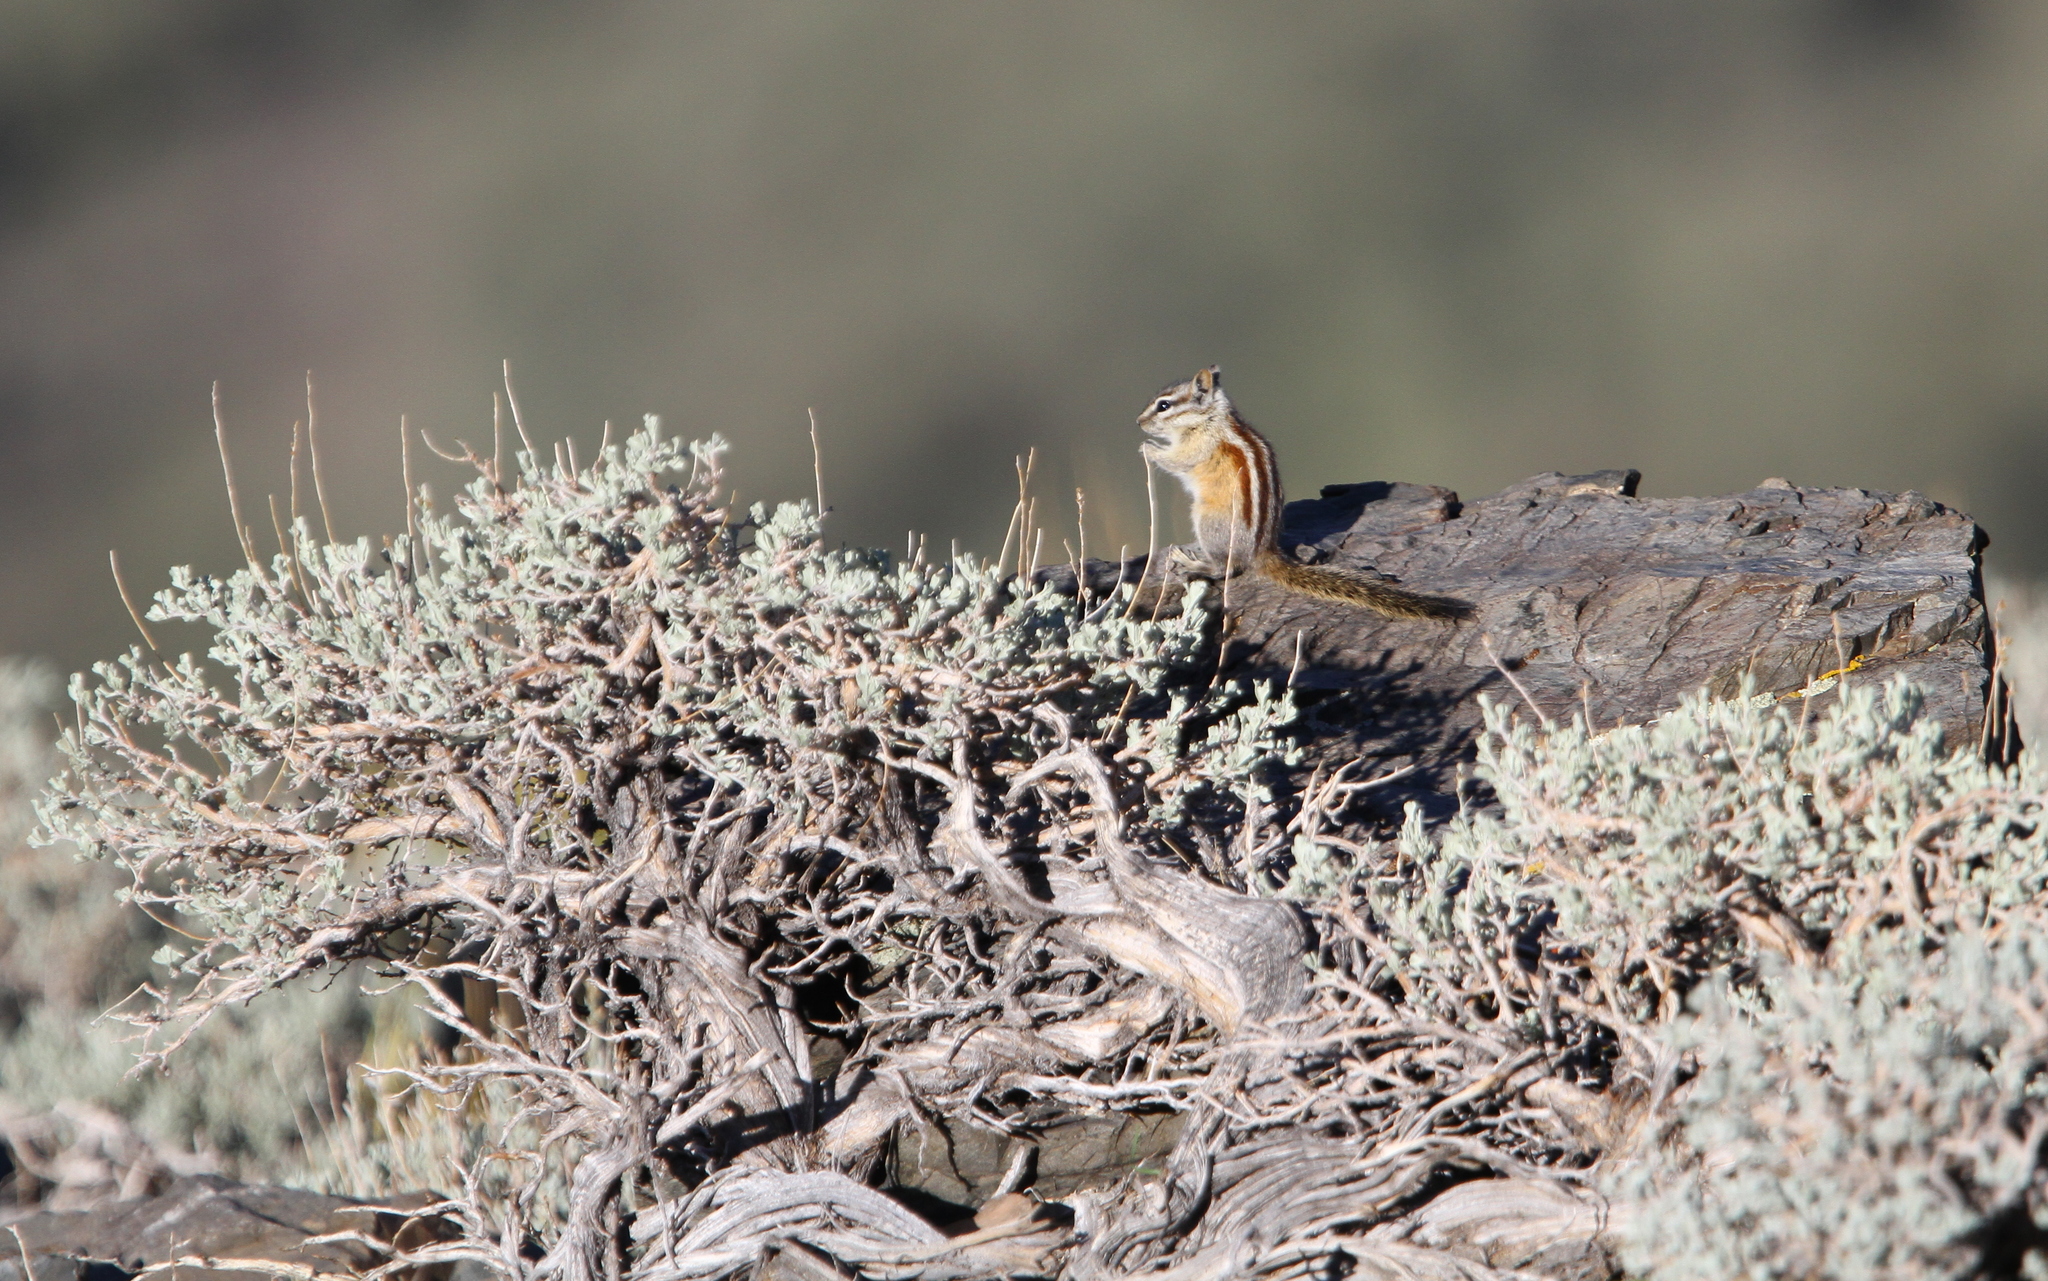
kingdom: Animalia
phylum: Chordata
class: Mammalia
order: Rodentia
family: Sciuridae
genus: Tamias
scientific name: Tamias panamintinus
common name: Panamint chipmunk
